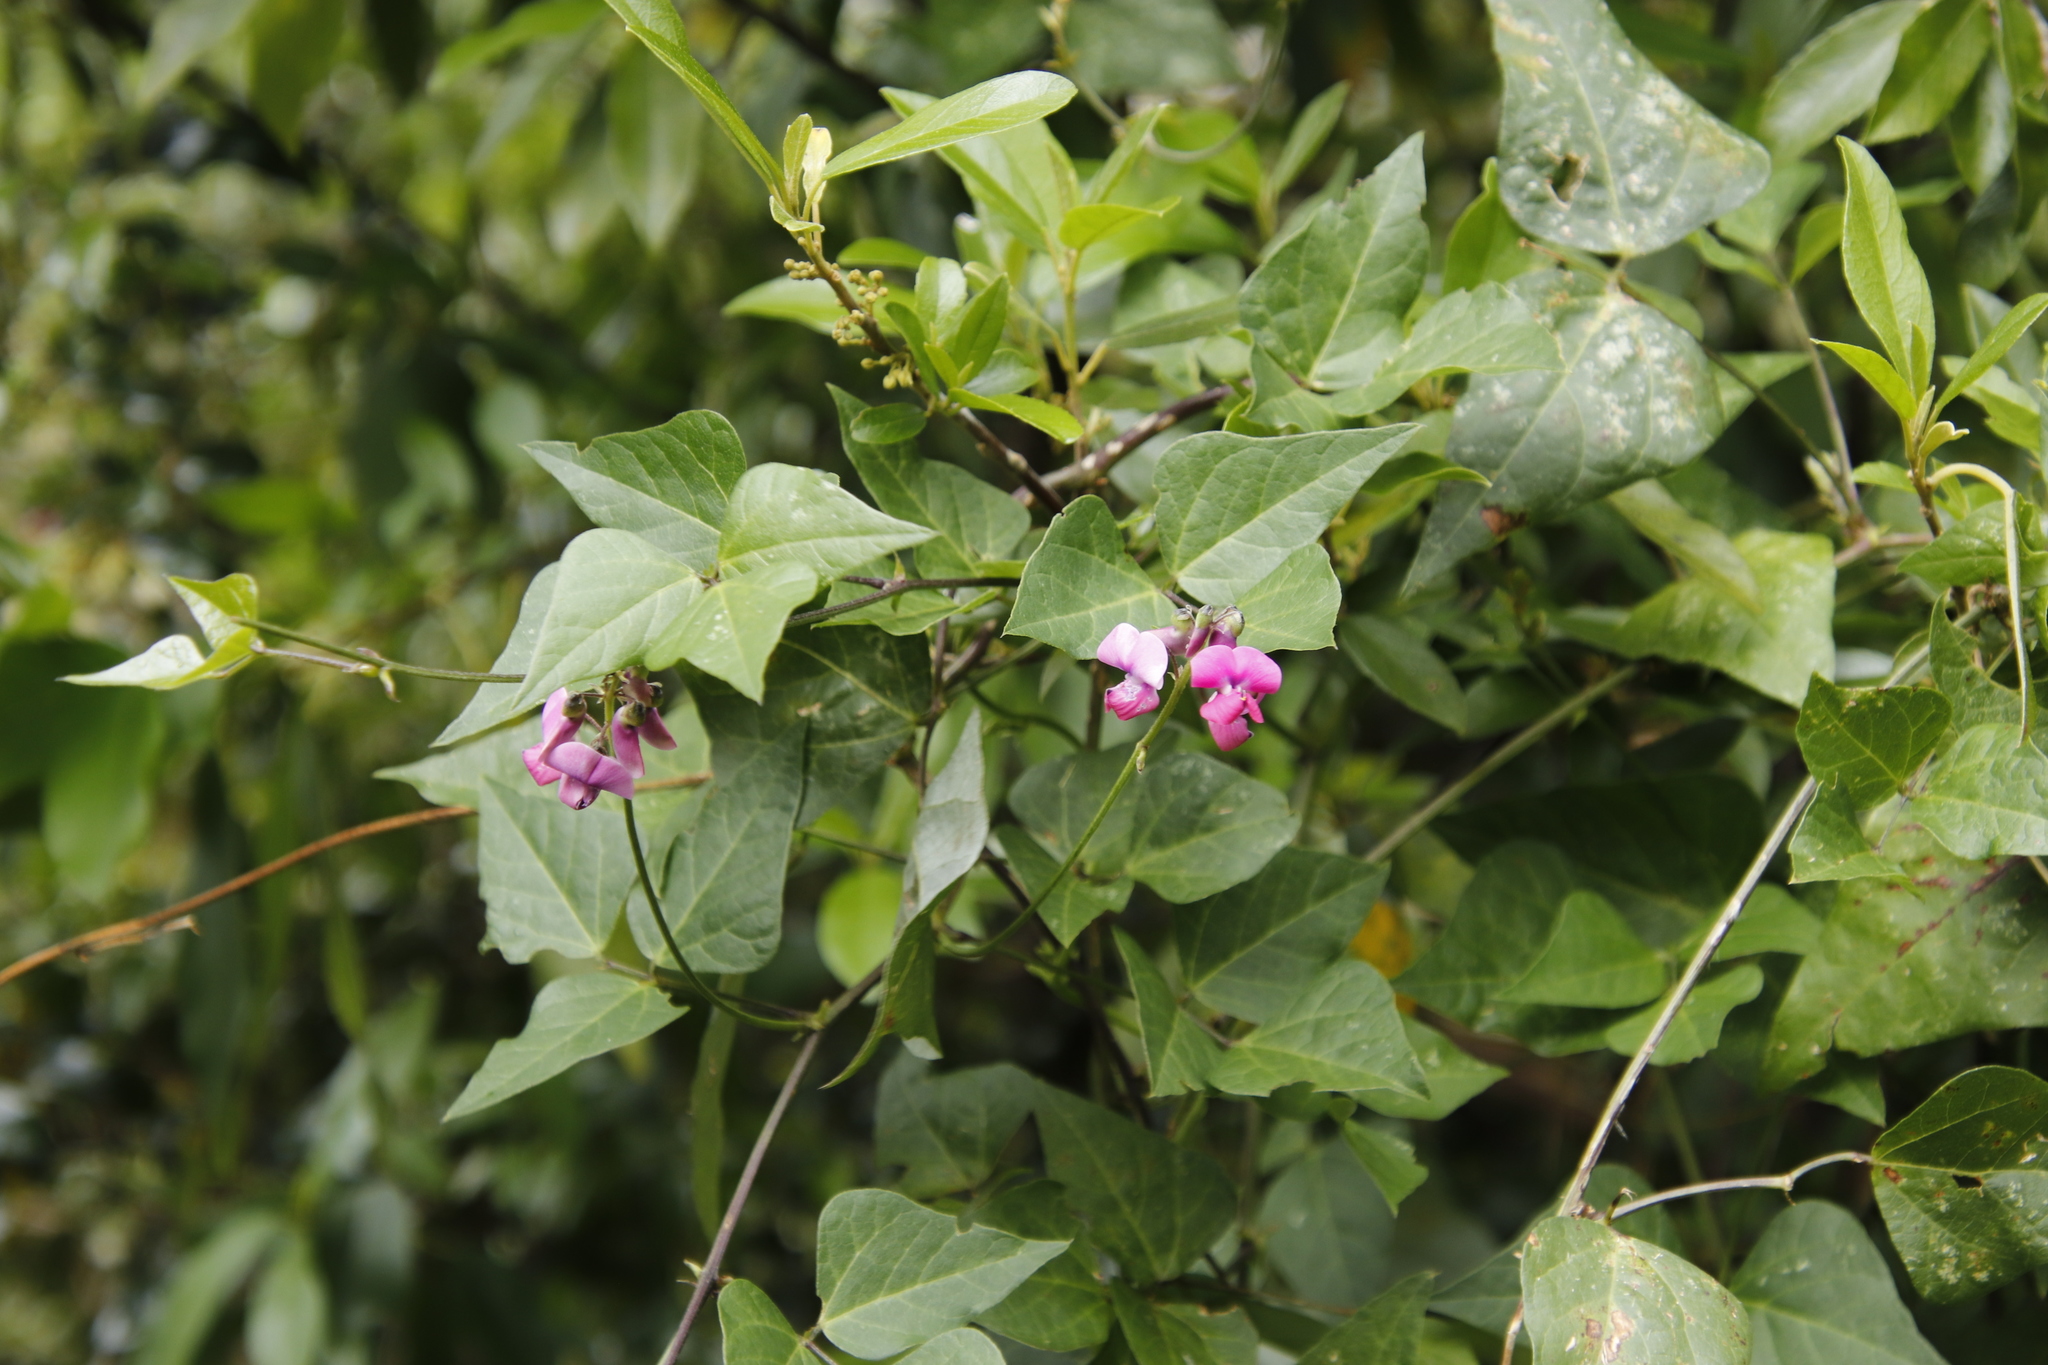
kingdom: Plantae
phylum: Tracheophyta
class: Magnoliopsida
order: Fabales
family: Fabaceae
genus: Dipogon
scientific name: Dipogon lignosus
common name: Okie bean
